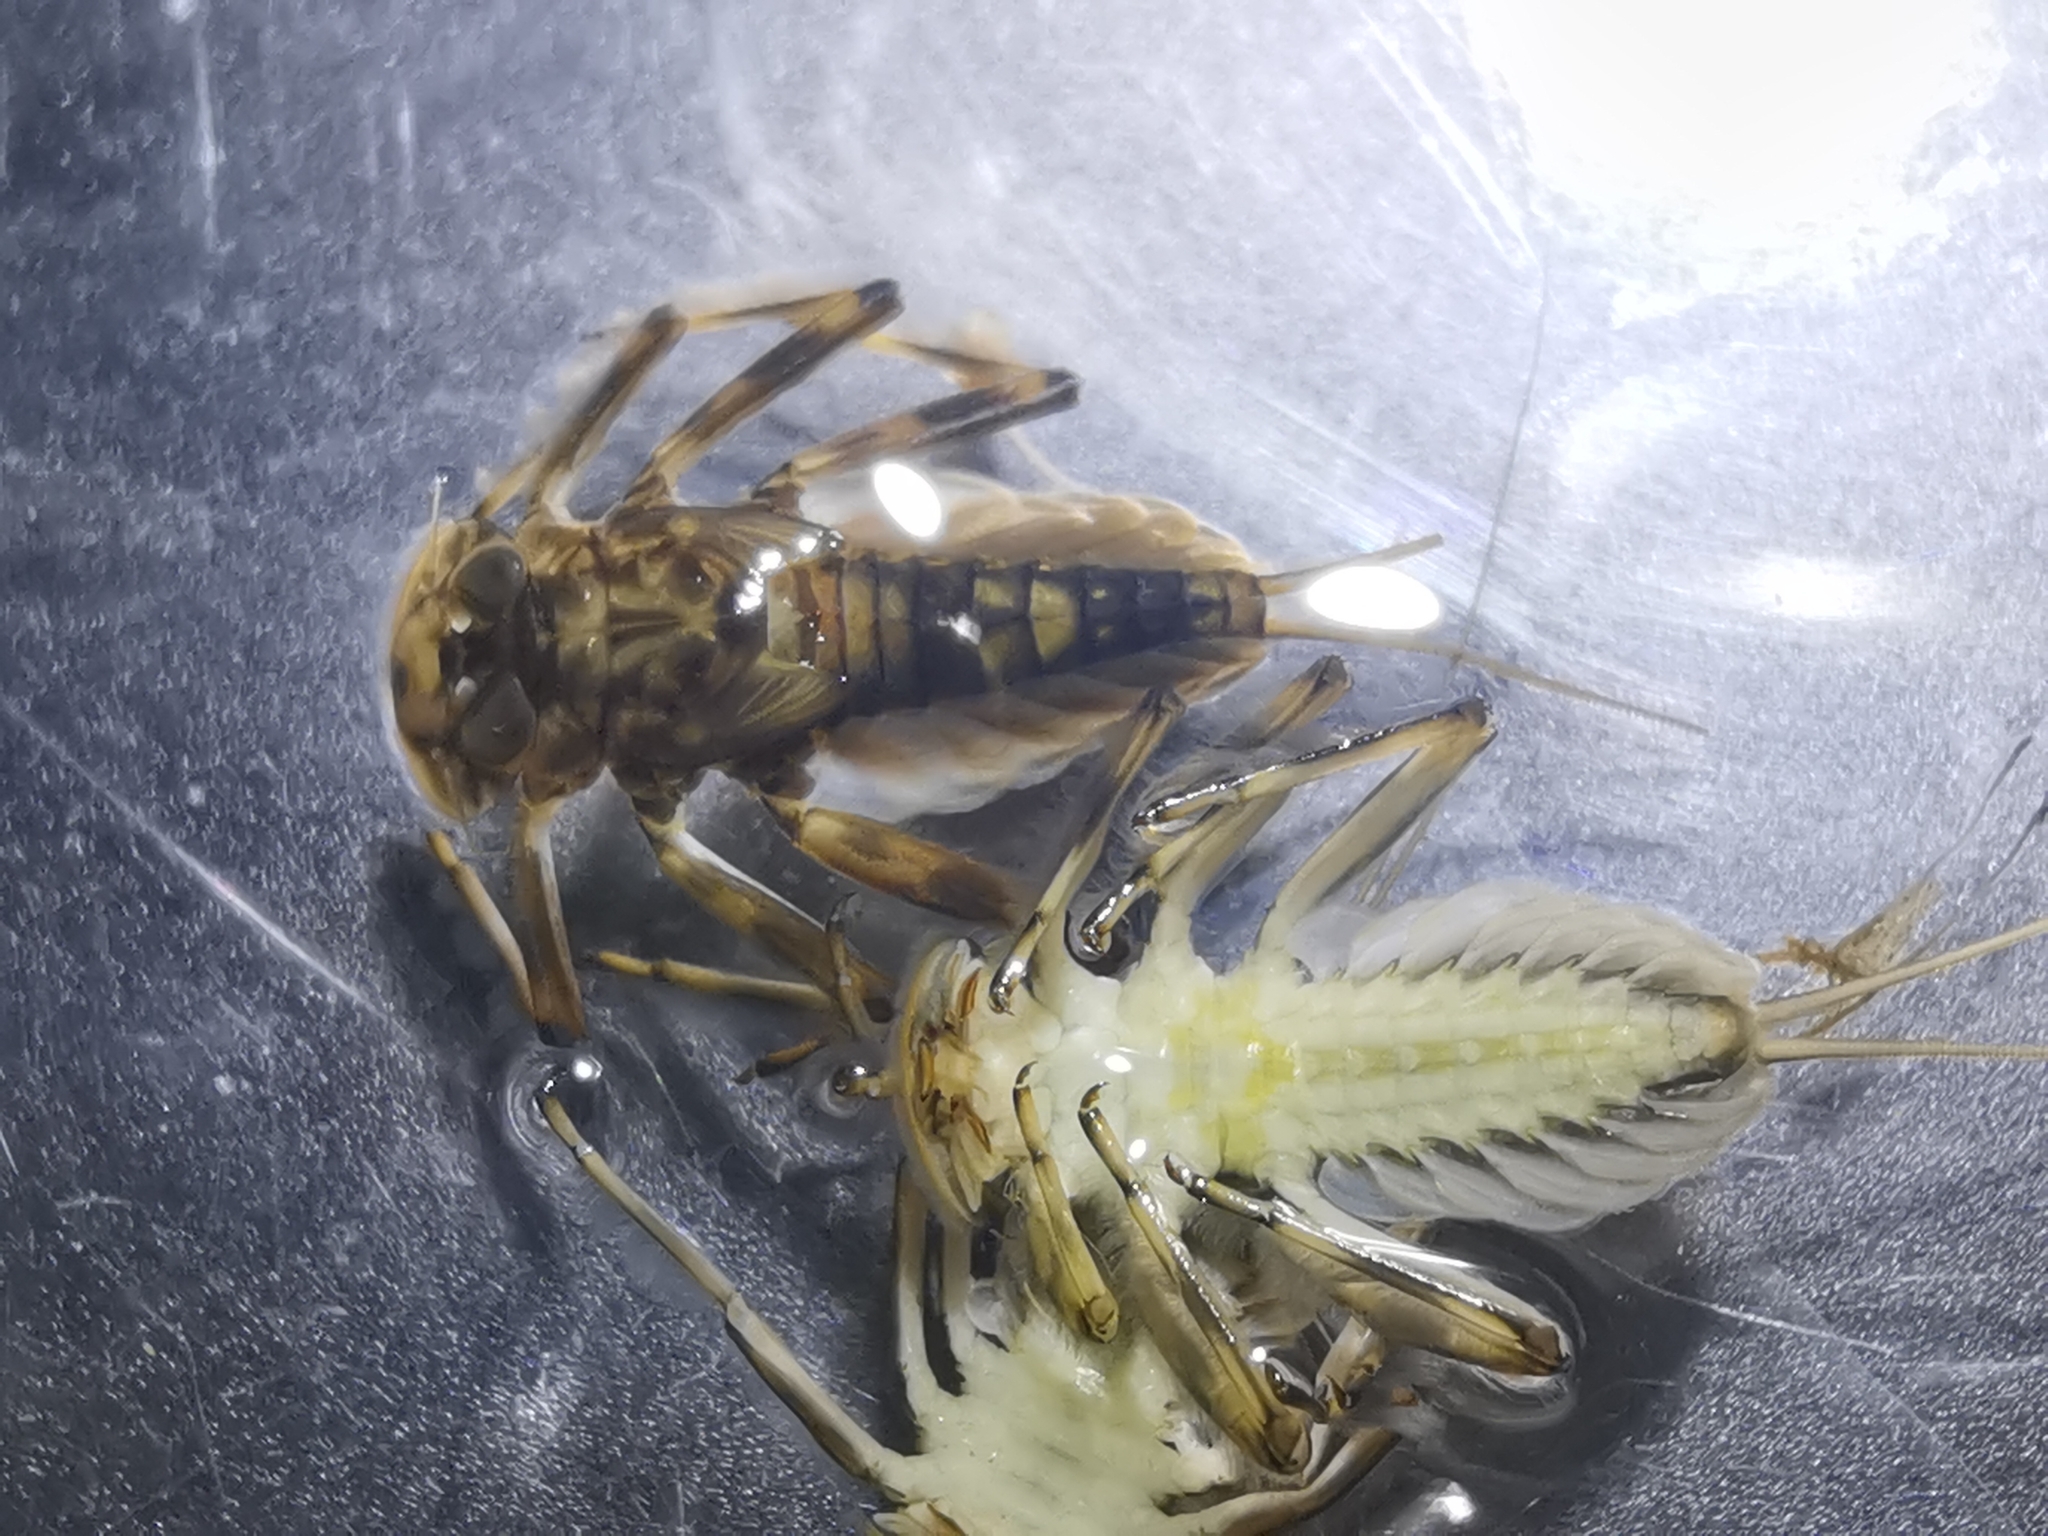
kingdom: Animalia
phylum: Arthropoda
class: Insecta
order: Ephemeroptera
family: Heptageniidae
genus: Epeorus
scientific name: Epeorus assimilis
